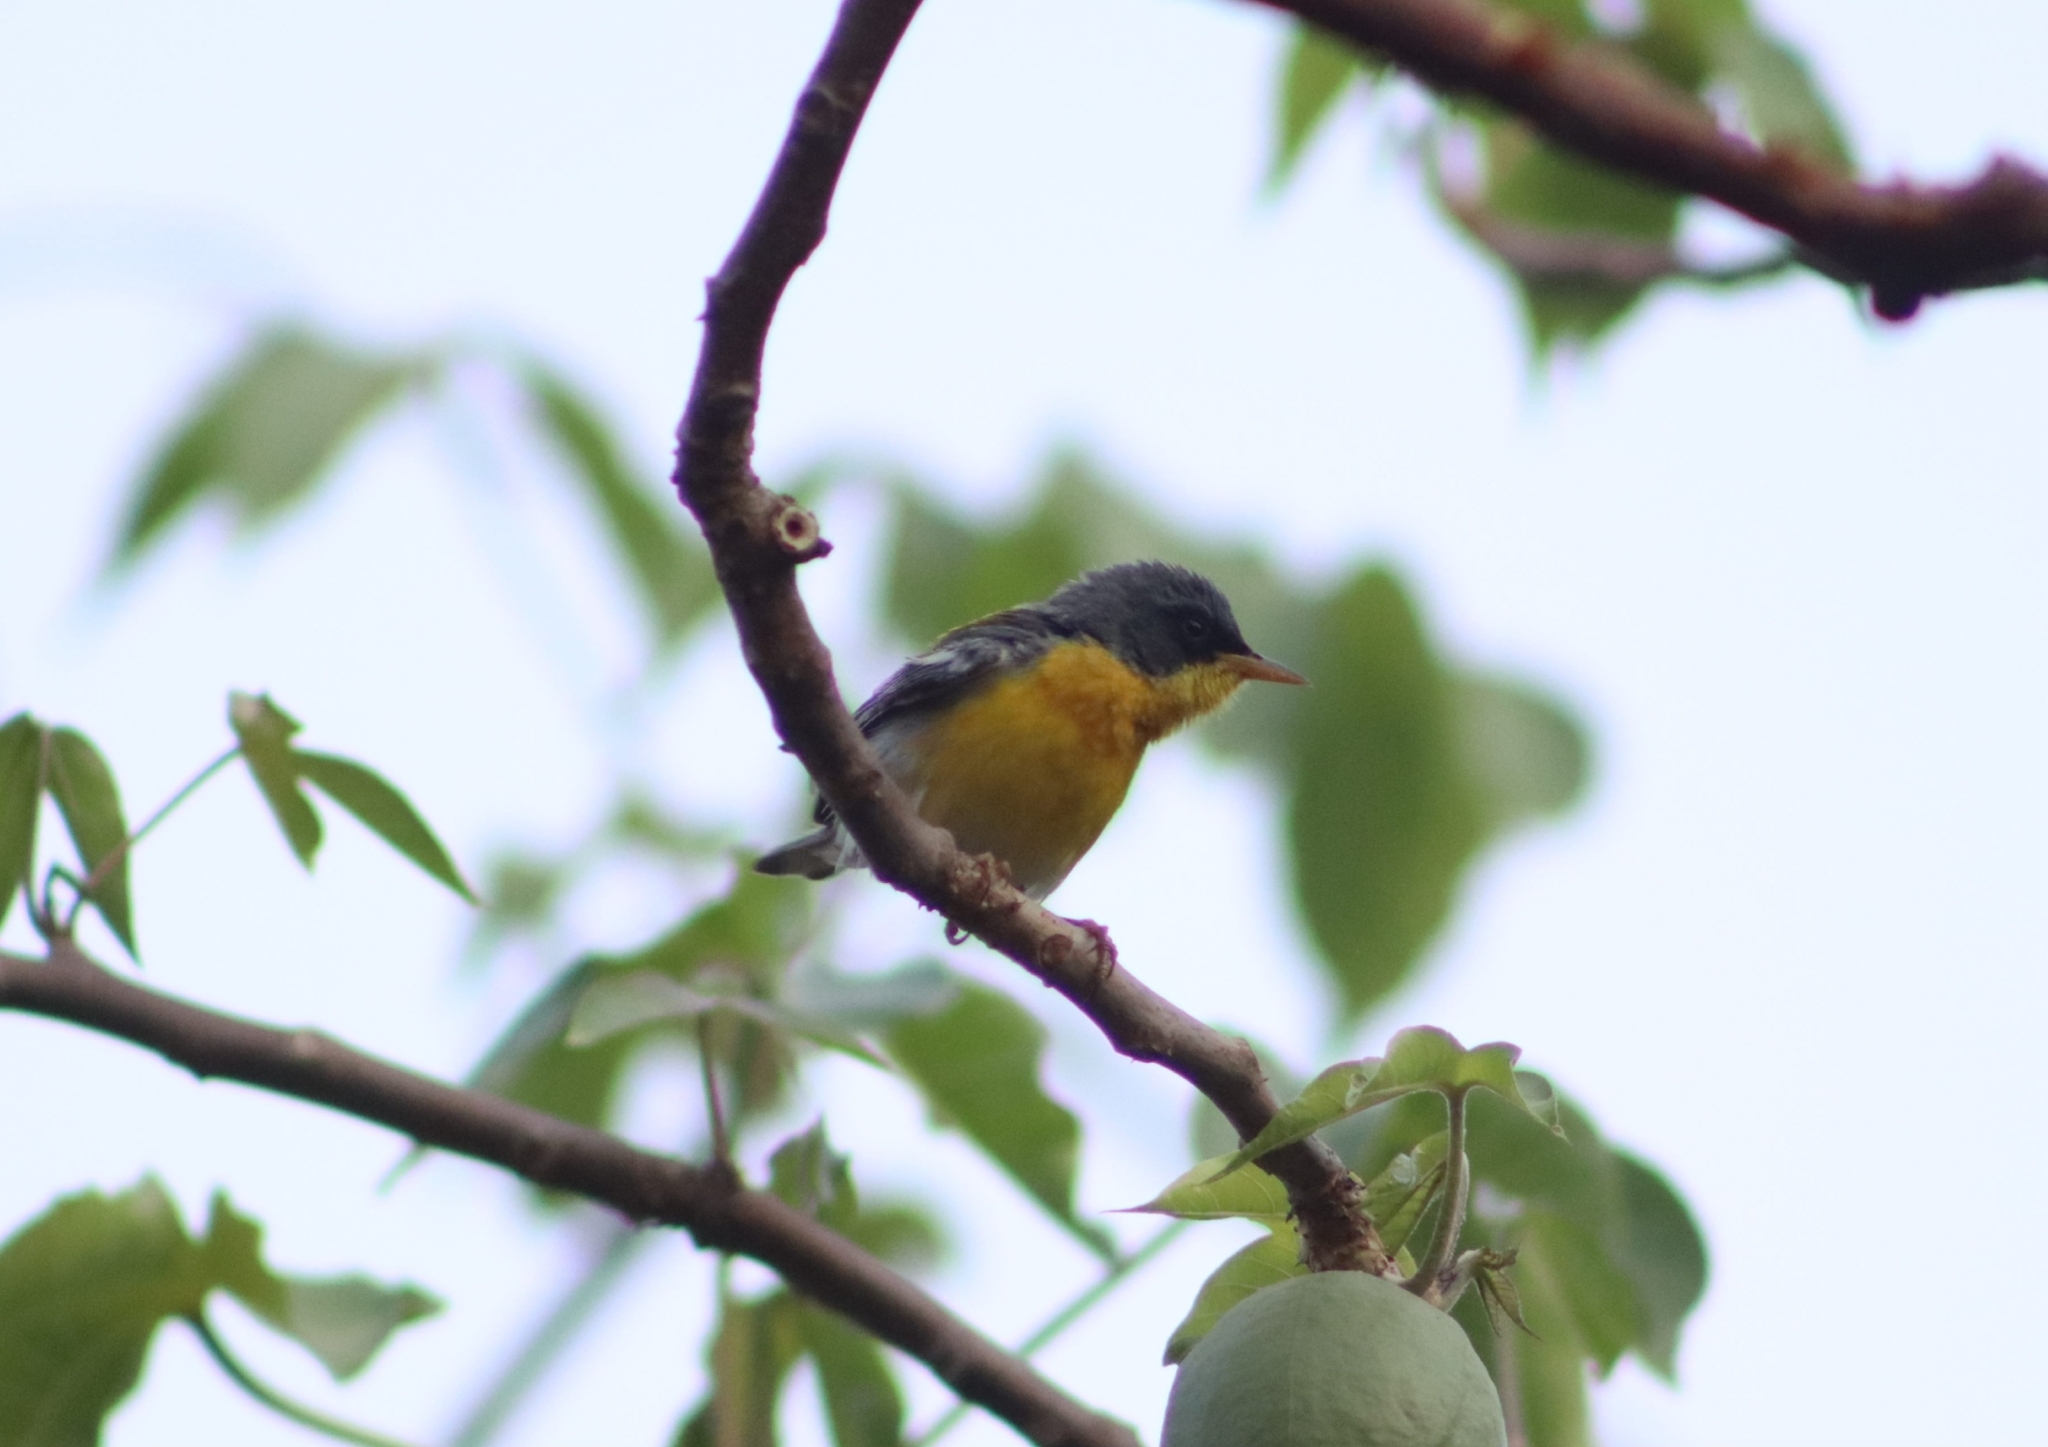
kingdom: Animalia
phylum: Chordata
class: Aves
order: Passeriformes
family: Parulidae
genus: Setophaga
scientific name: Setophaga pitiayumi
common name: Tropical parula
